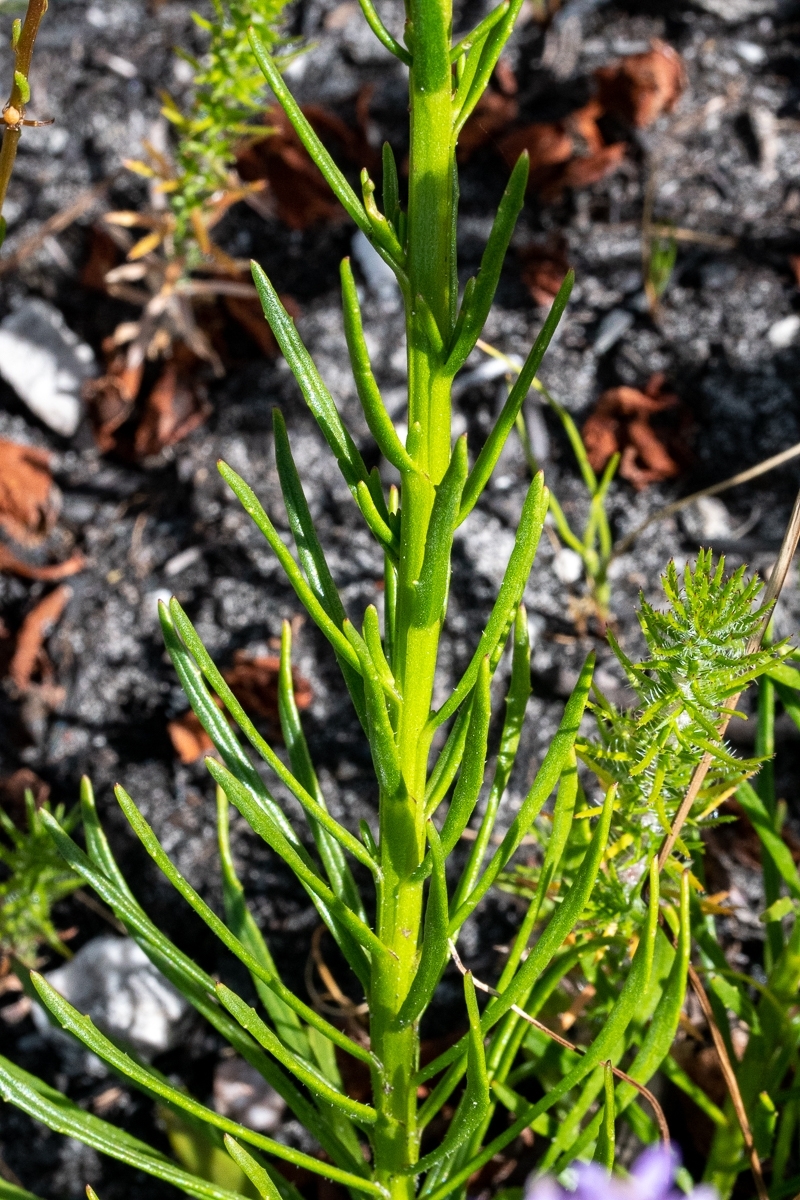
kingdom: Plantae
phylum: Tracheophyta
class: Liliopsida
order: Asparagales
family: Orchidaceae
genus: Pterygodium
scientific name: Pterygodium catholicum
